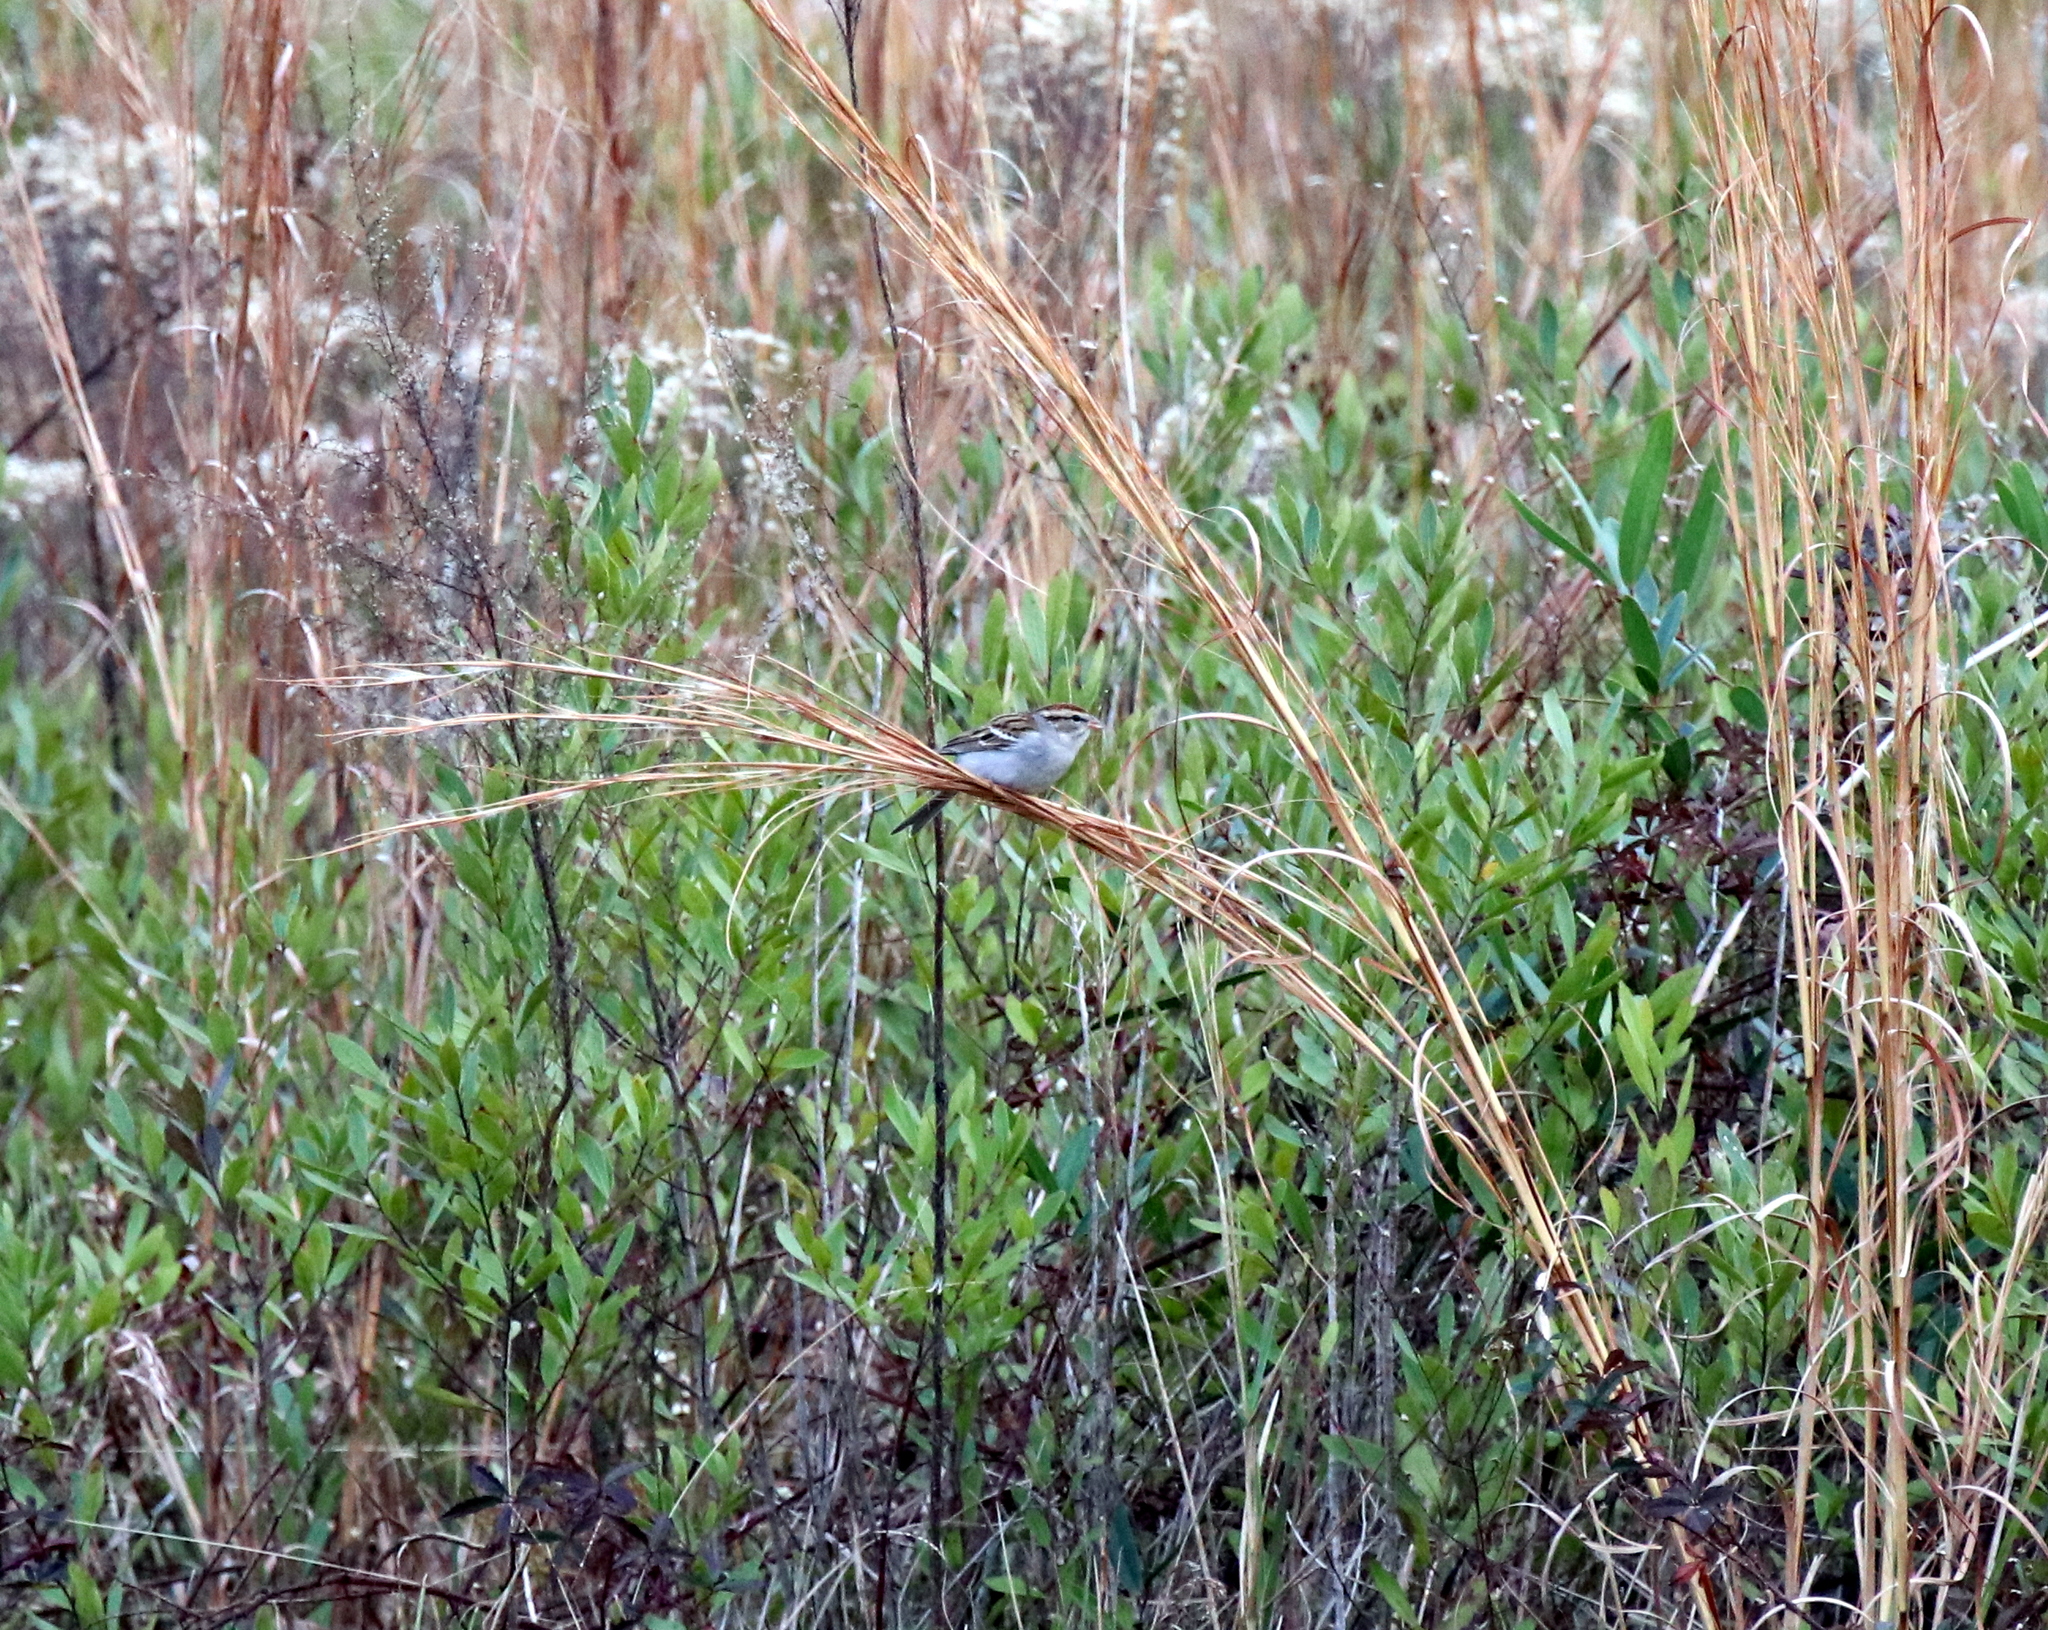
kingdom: Animalia
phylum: Chordata
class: Aves
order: Passeriformes
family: Passerellidae
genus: Spizella
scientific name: Spizella passerina
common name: Chipping sparrow
